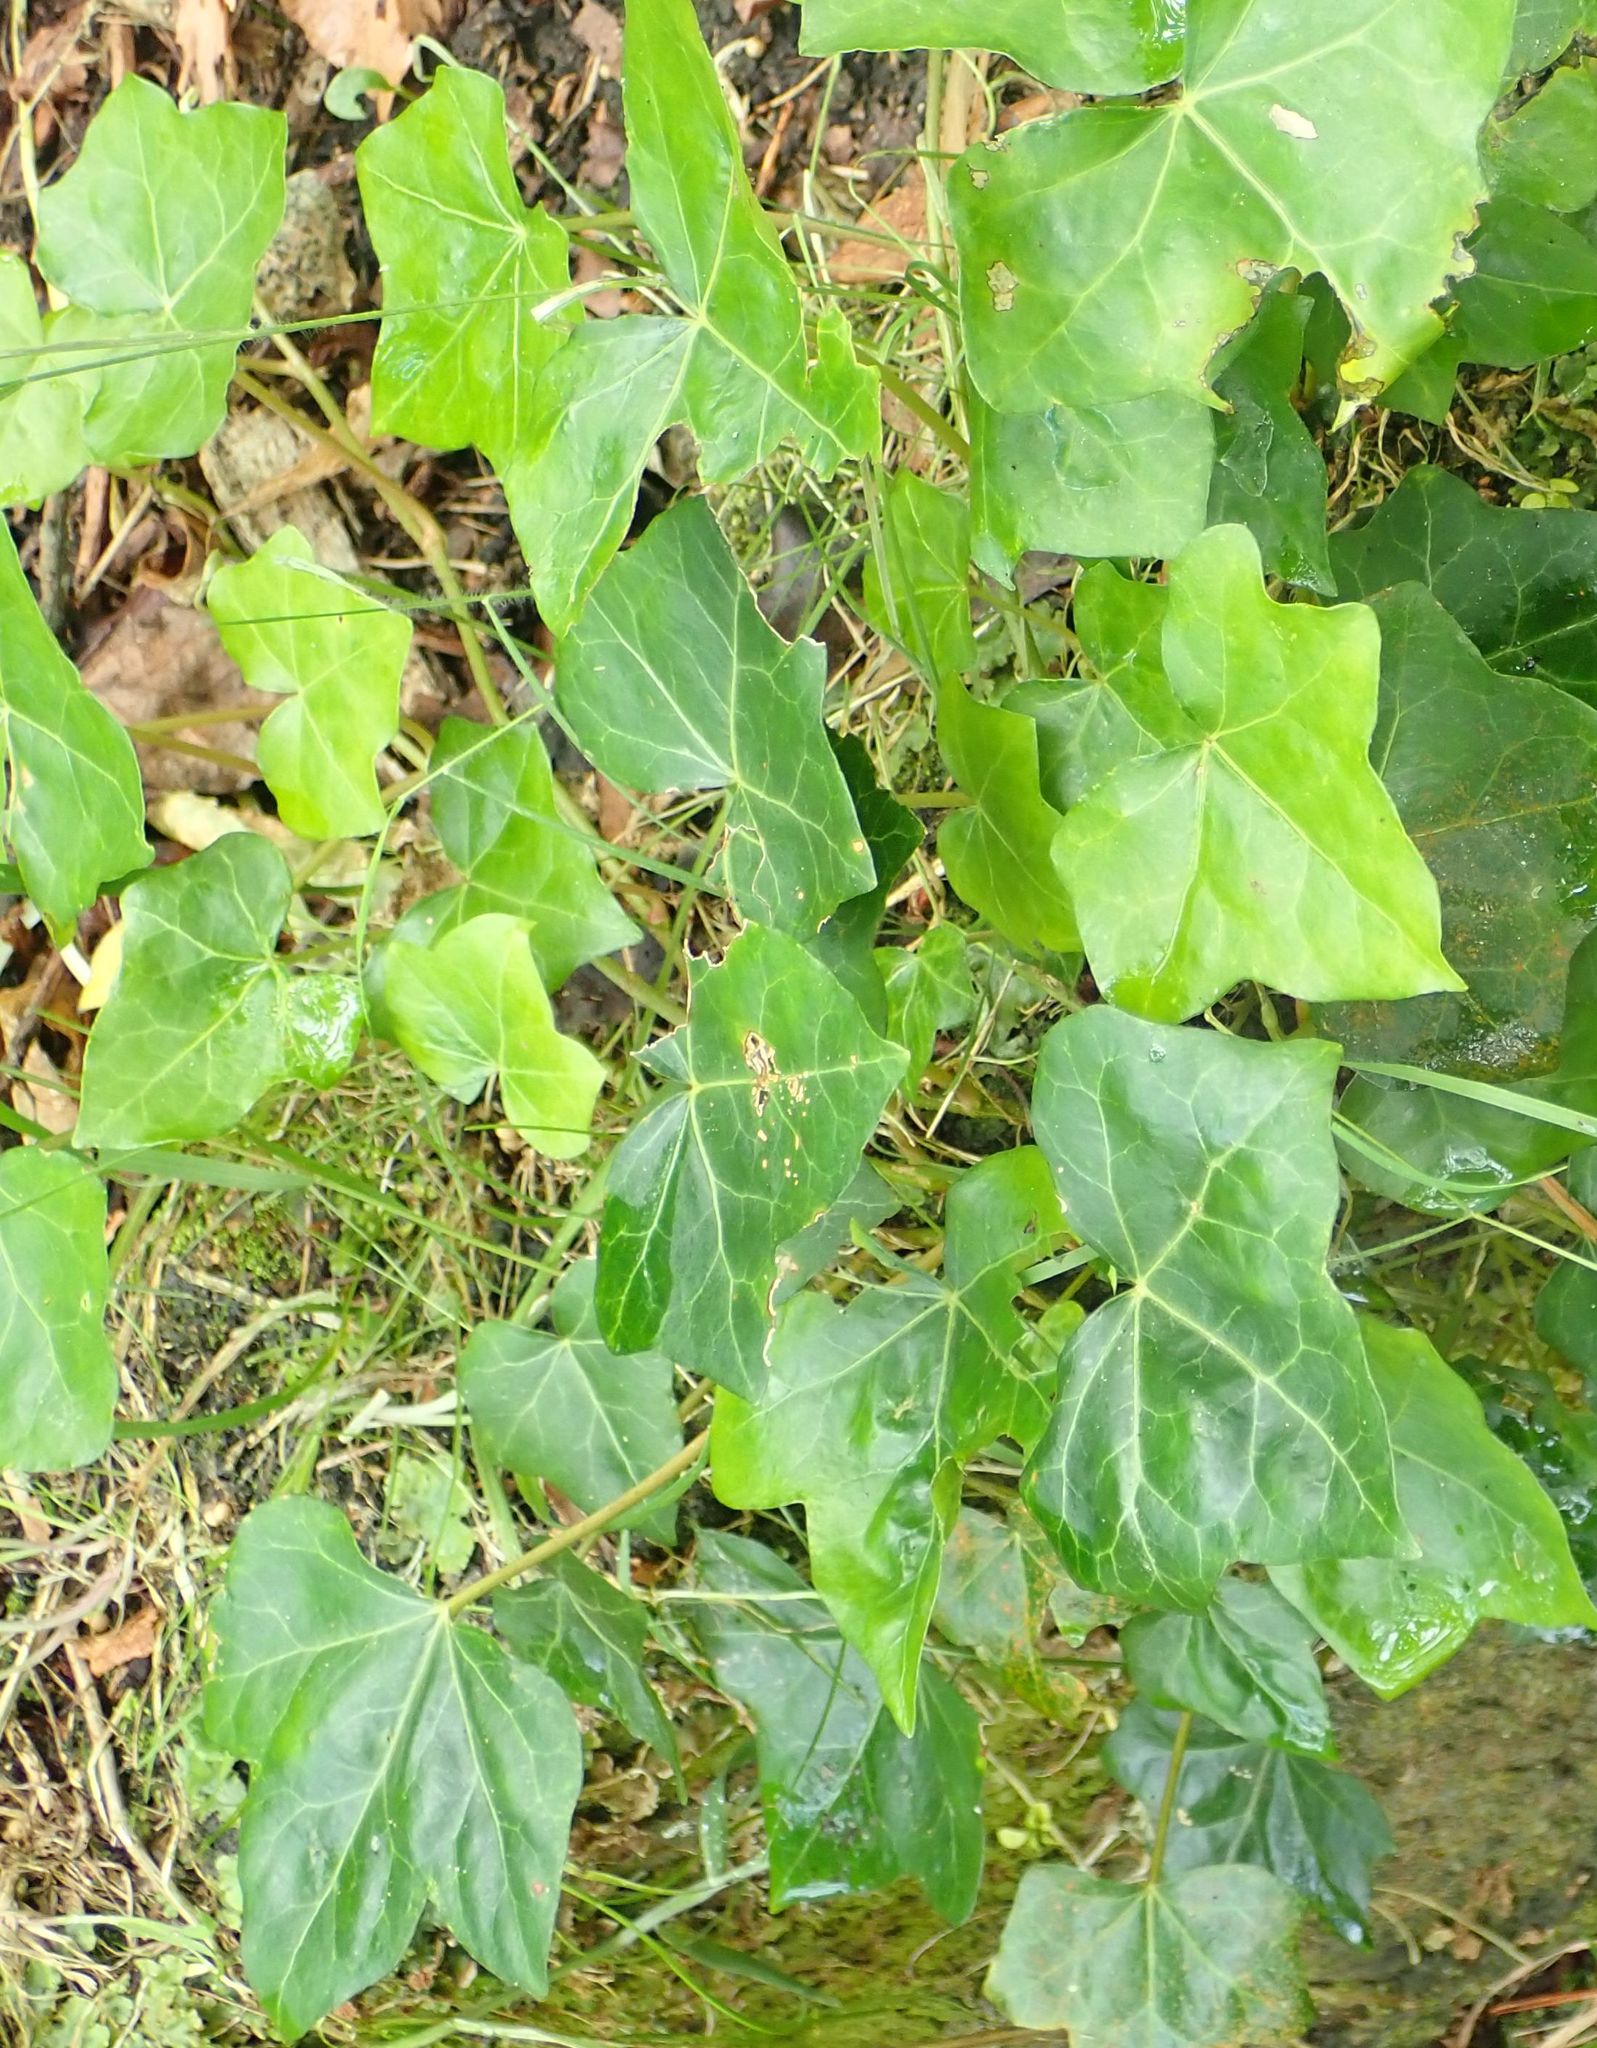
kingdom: Plantae
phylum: Tracheophyta
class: Magnoliopsida
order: Apiales
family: Araliaceae
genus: Hedera
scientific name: Hedera helix
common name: Ivy
